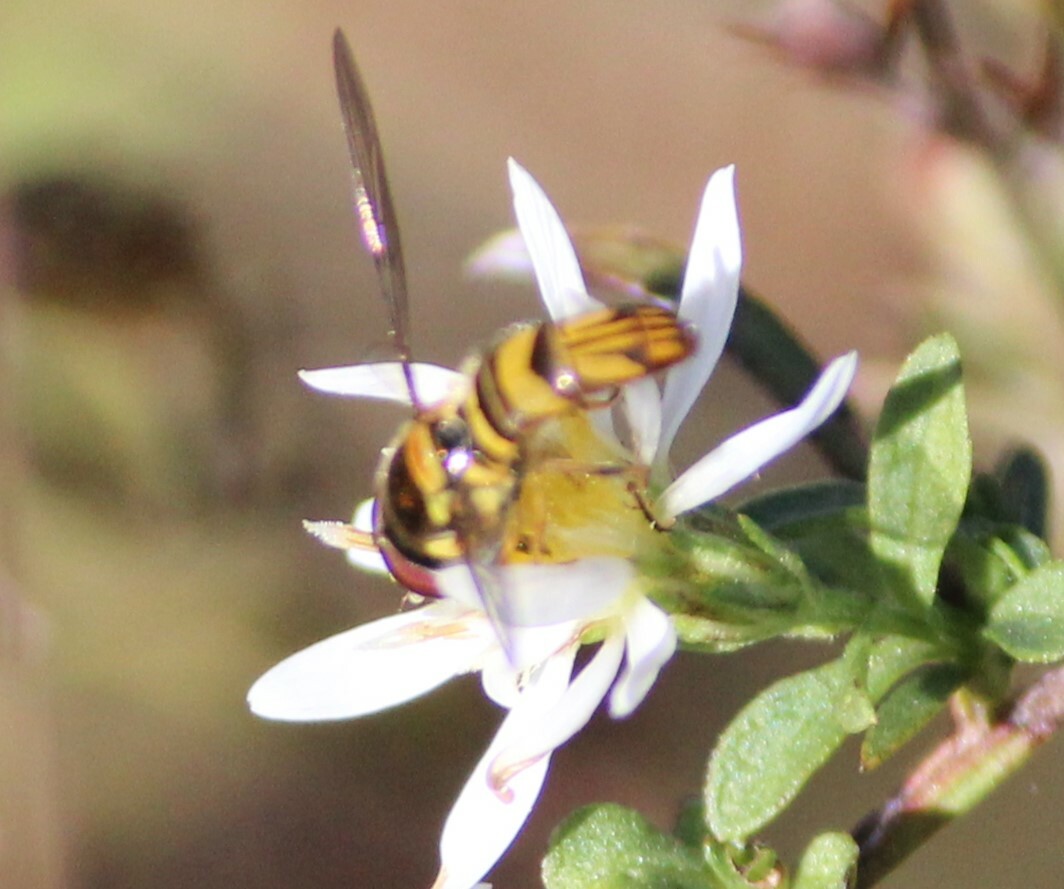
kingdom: Animalia
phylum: Arthropoda
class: Insecta
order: Diptera
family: Syrphidae
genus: Allograpta
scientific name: Allograpta obliqua
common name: Common oblique syrphid
